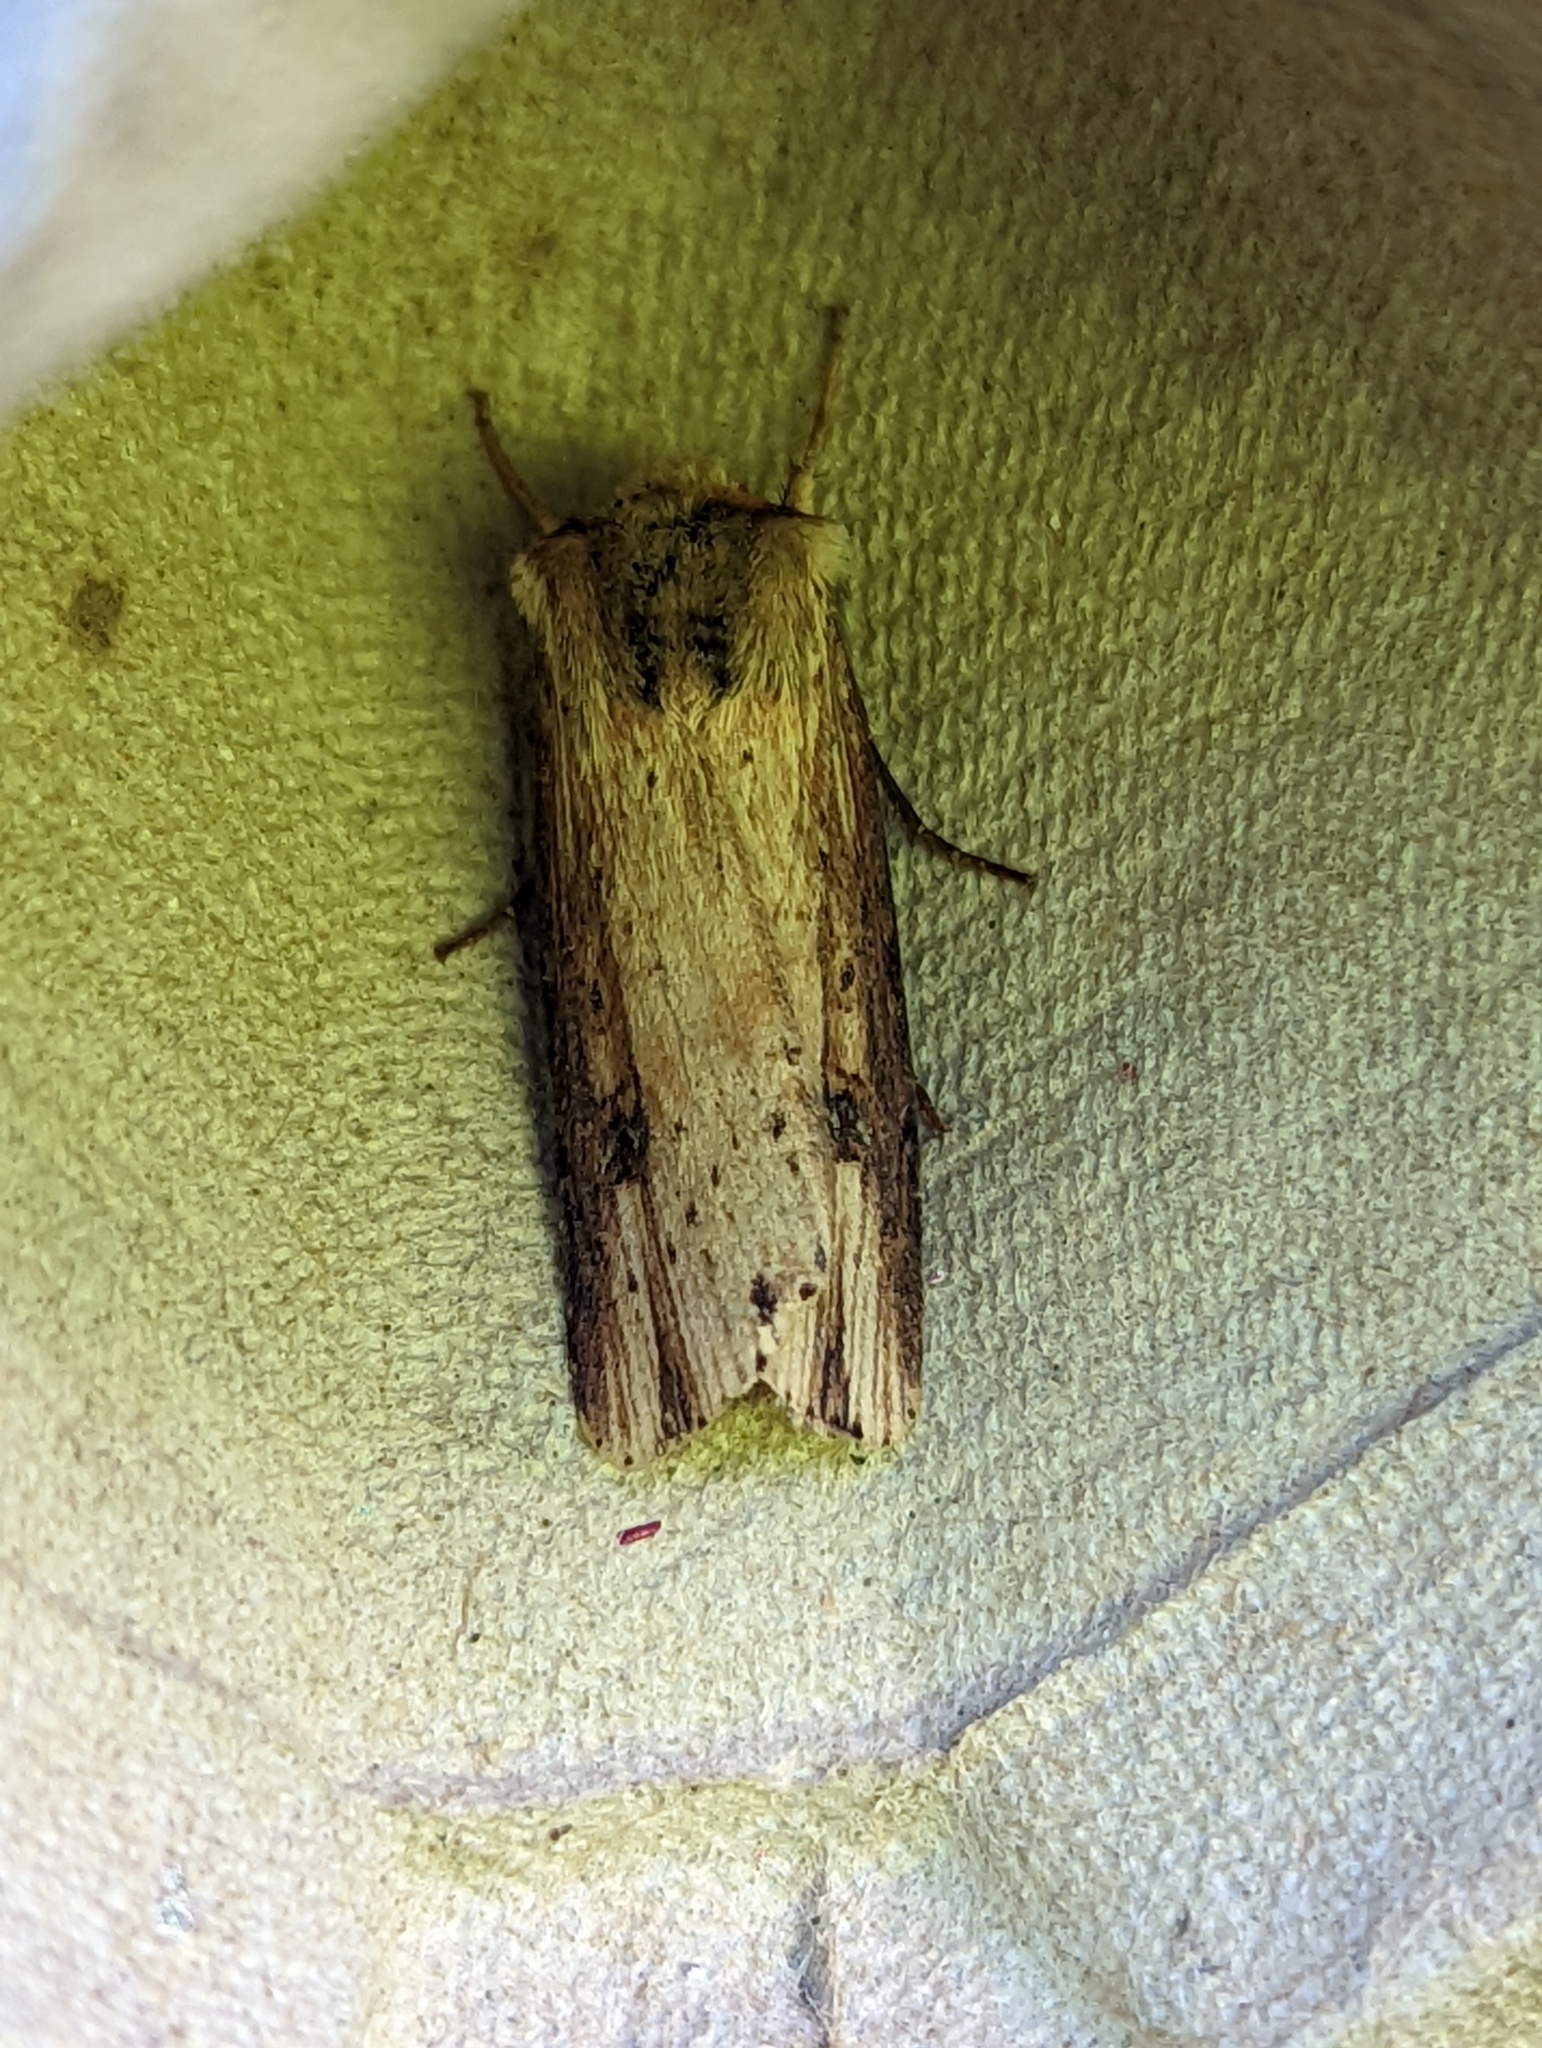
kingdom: Animalia
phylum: Arthropoda
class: Insecta
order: Lepidoptera
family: Noctuidae
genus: Axylia
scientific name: Axylia putris
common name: Flame
